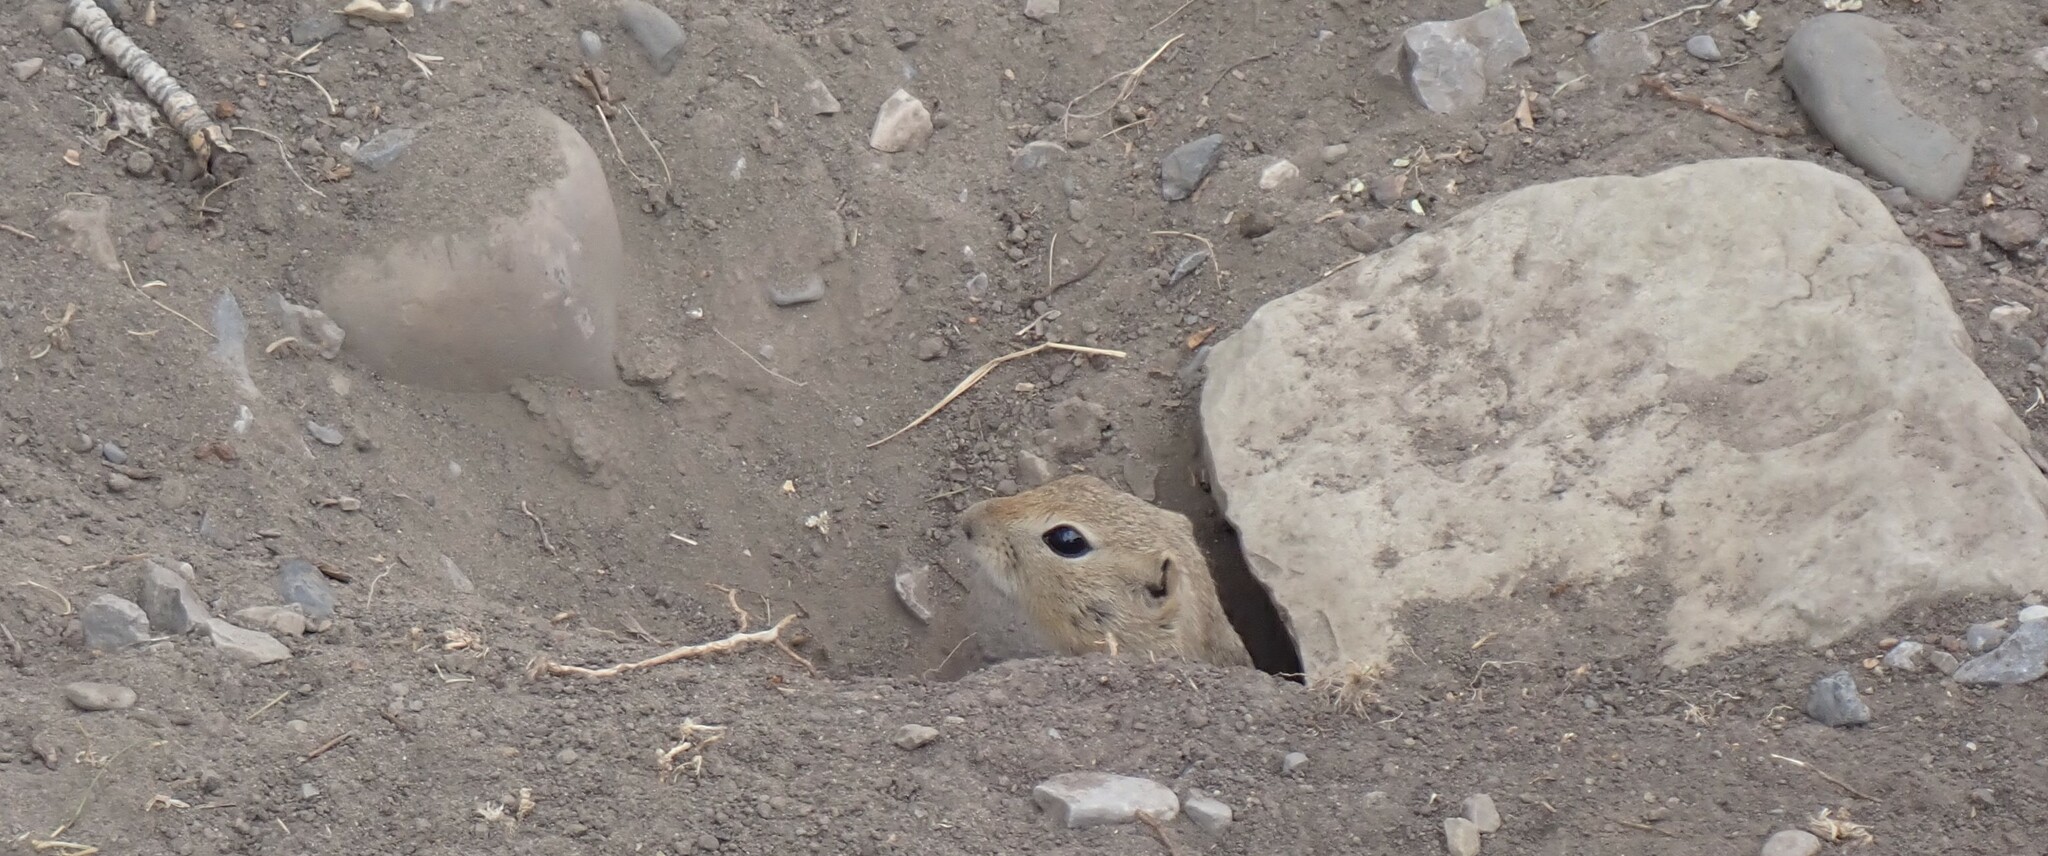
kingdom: Animalia
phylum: Chordata
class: Mammalia
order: Rodentia
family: Sciuridae
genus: Urocitellus
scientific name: Urocitellus richardsonii
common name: Richardson's ground squirrel
